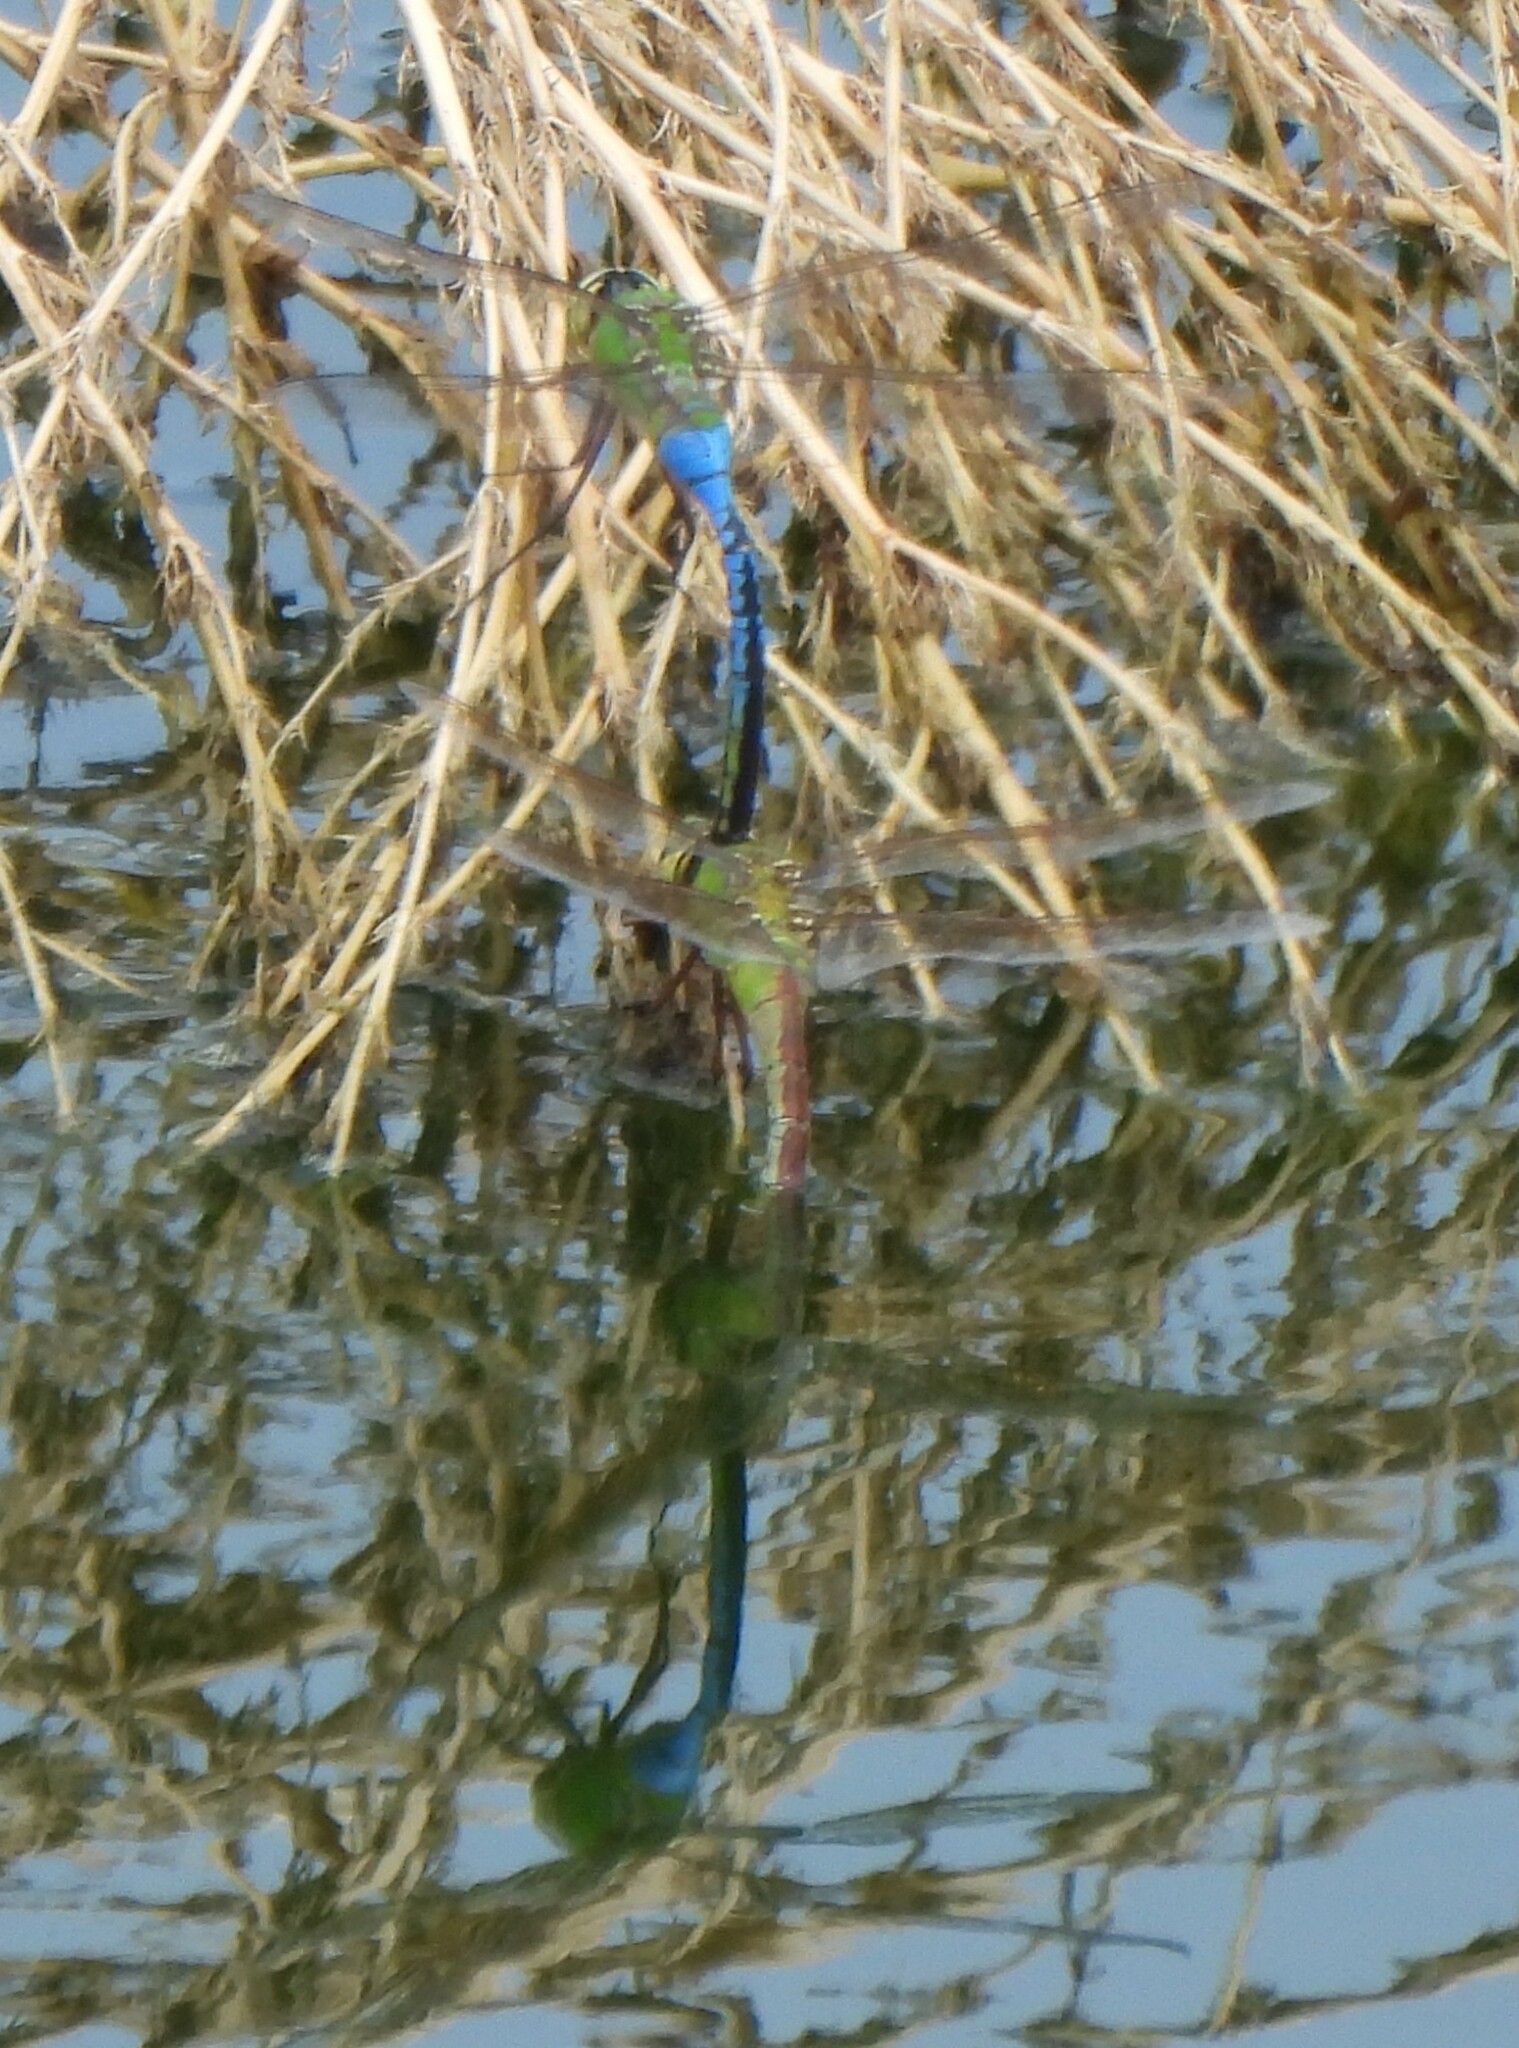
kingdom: Animalia
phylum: Arthropoda
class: Insecta
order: Odonata
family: Aeshnidae
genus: Anax
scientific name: Anax junius
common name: Common green darner
